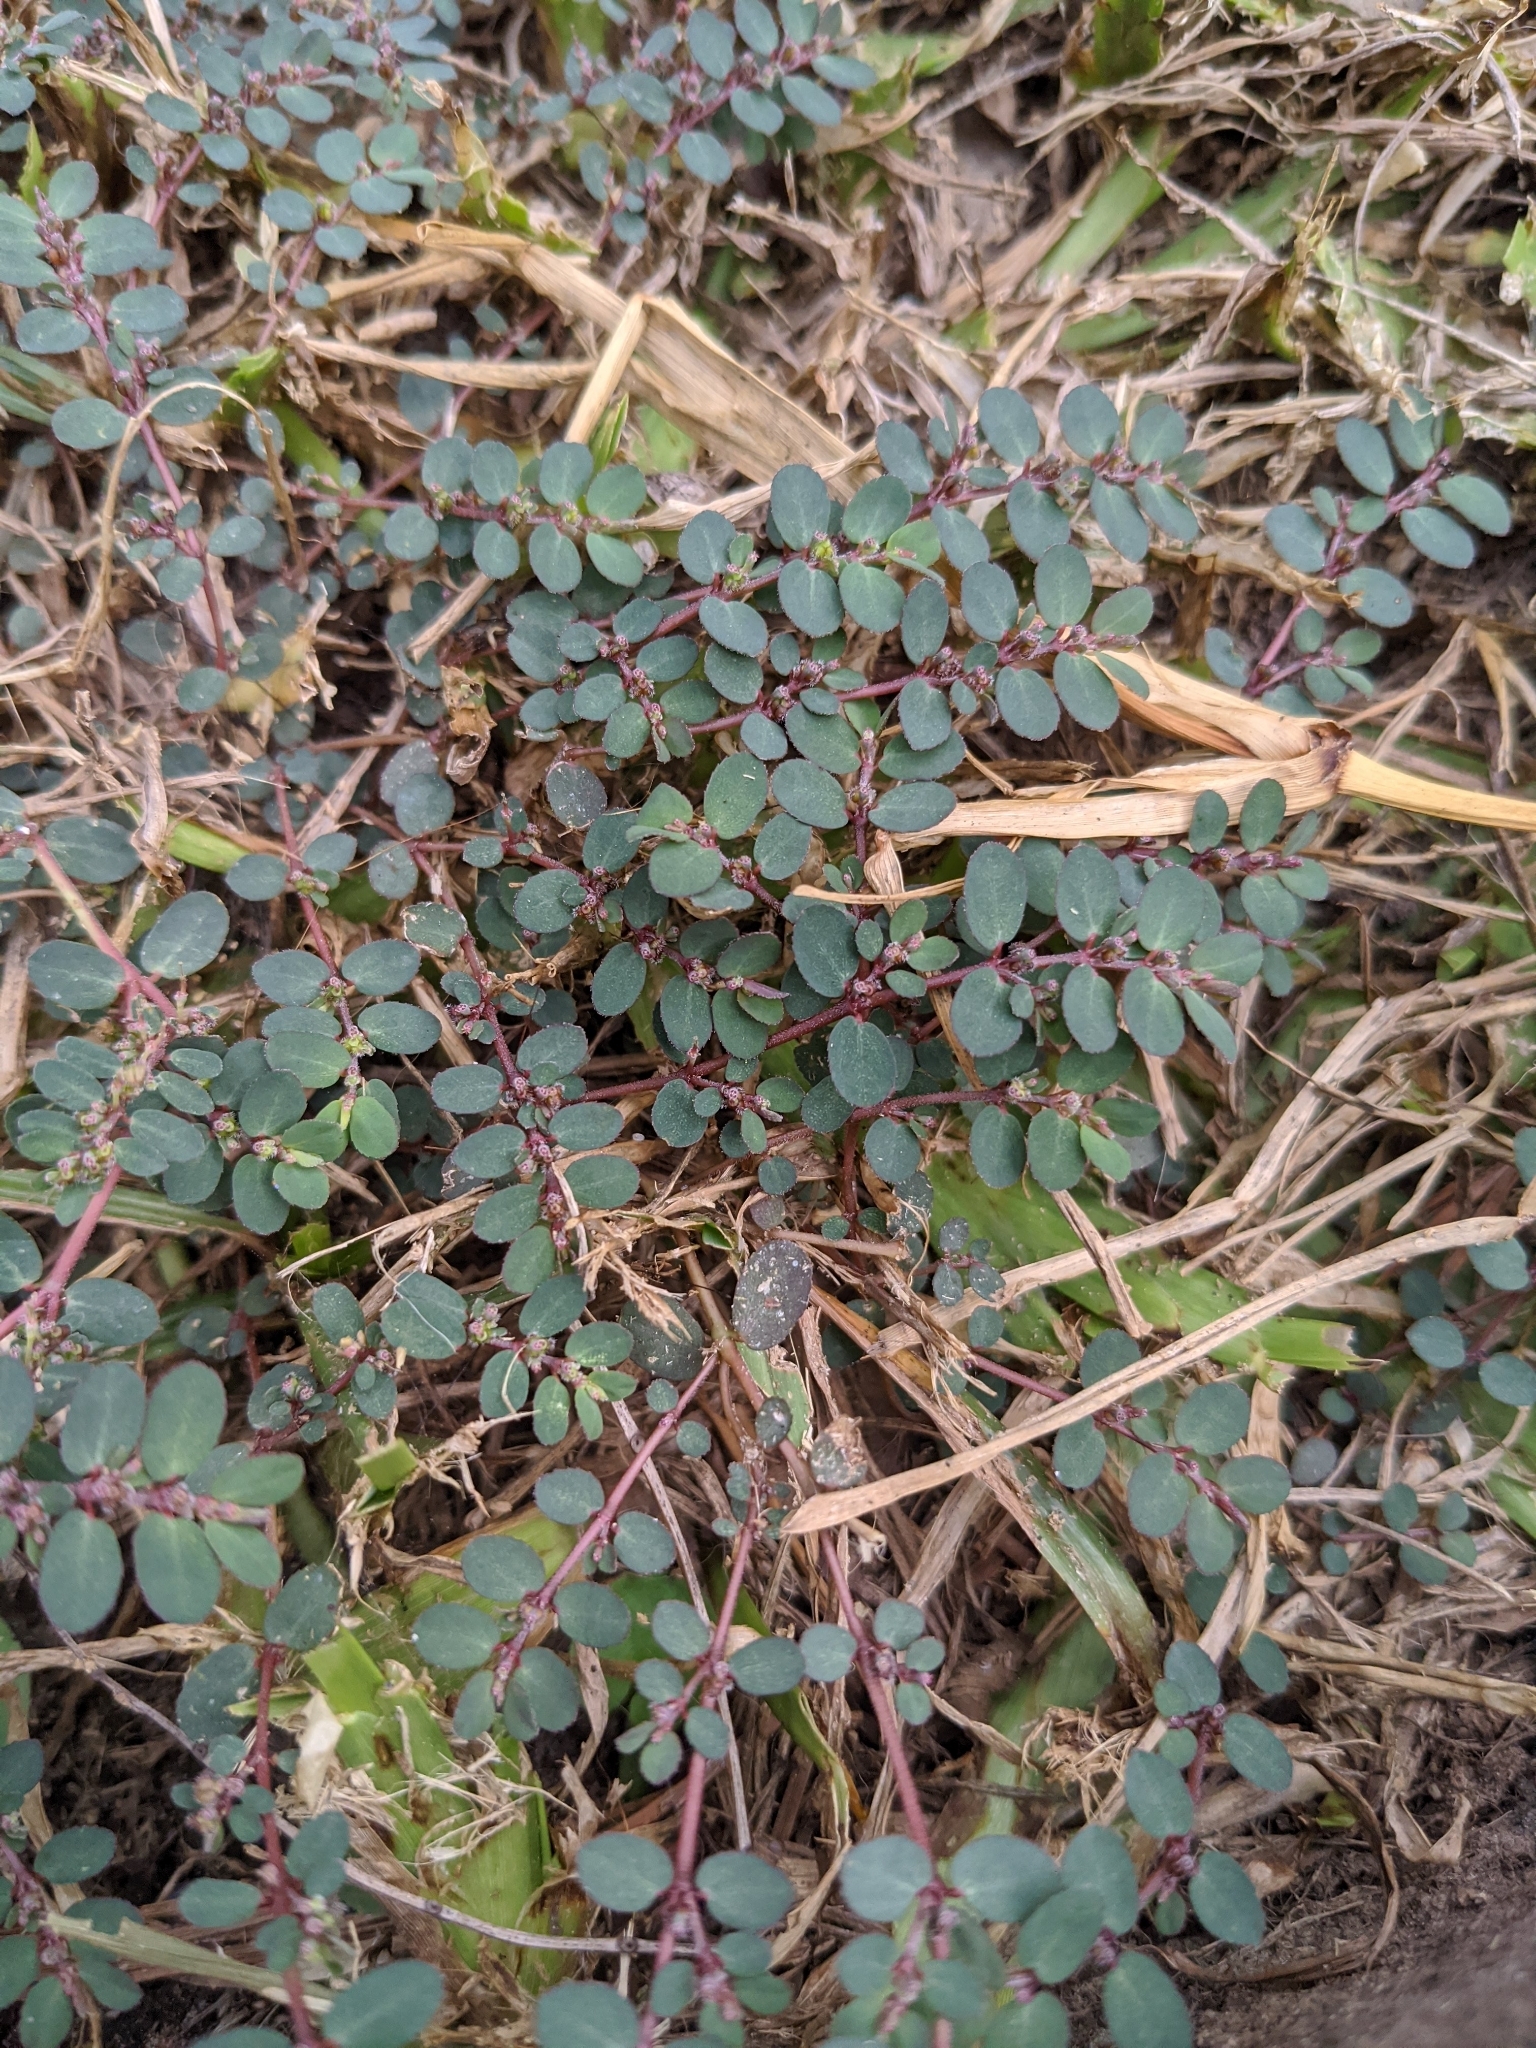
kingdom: Plantae
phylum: Tracheophyta
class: Magnoliopsida
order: Malpighiales
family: Euphorbiaceae
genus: Euphorbia
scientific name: Euphorbia prostrata
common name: Prostrate sandmat
